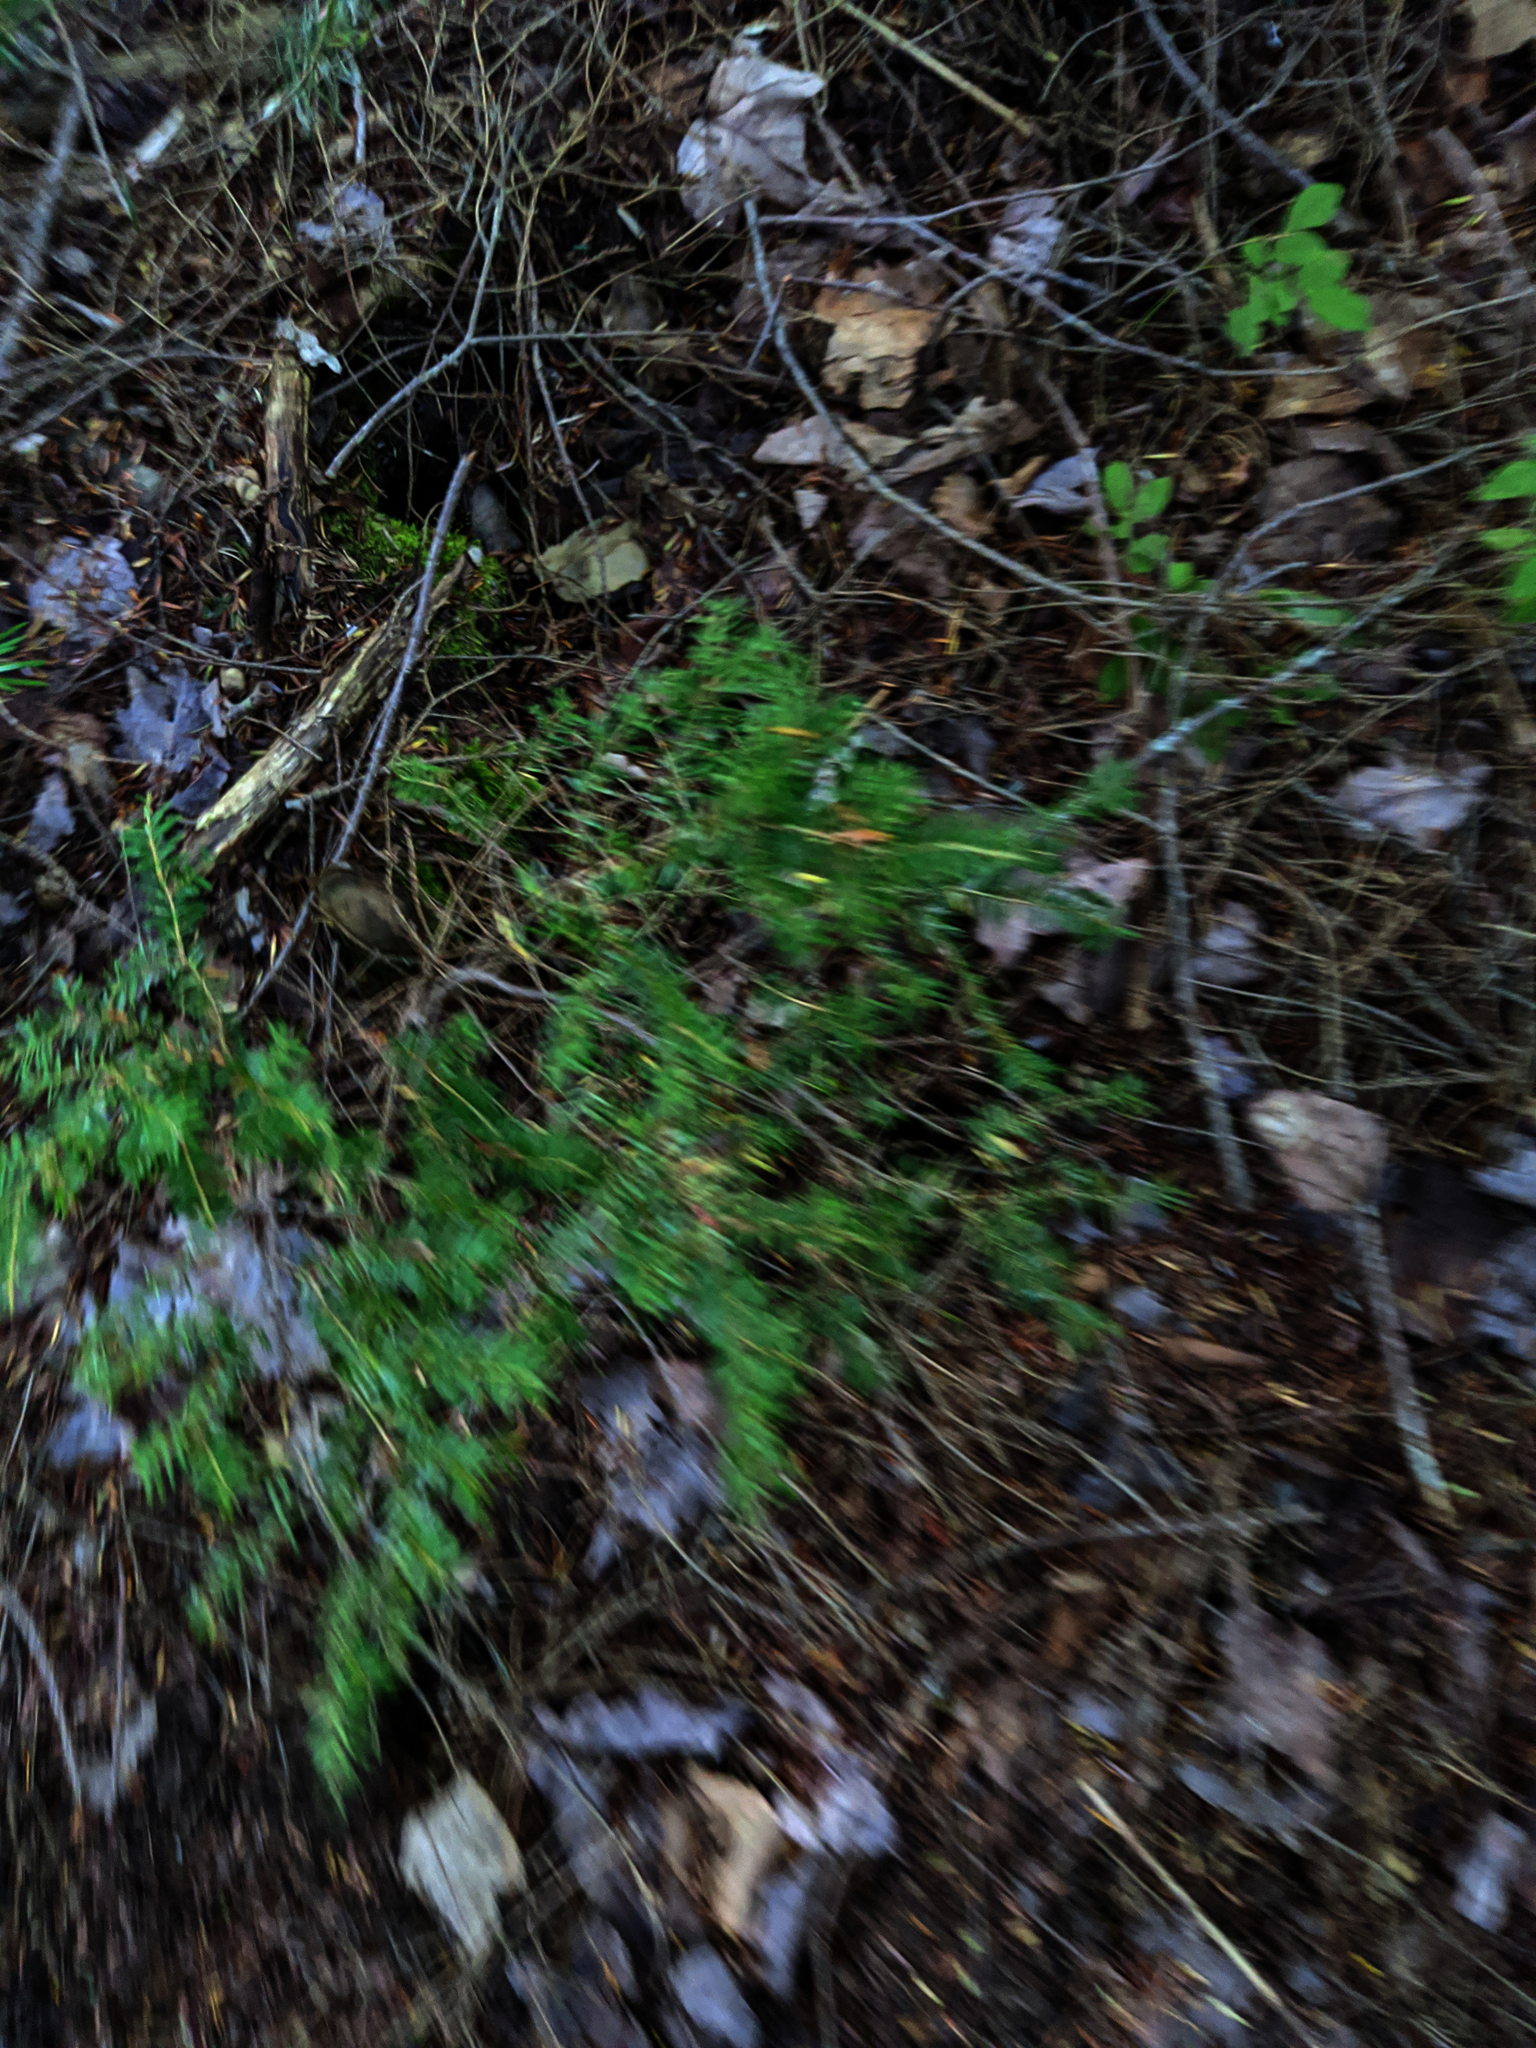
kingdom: Plantae
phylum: Tracheophyta
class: Pinopsida
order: Pinales
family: Pinaceae
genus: Tsuga
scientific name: Tsuga canadensis
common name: Eastern hemlock
